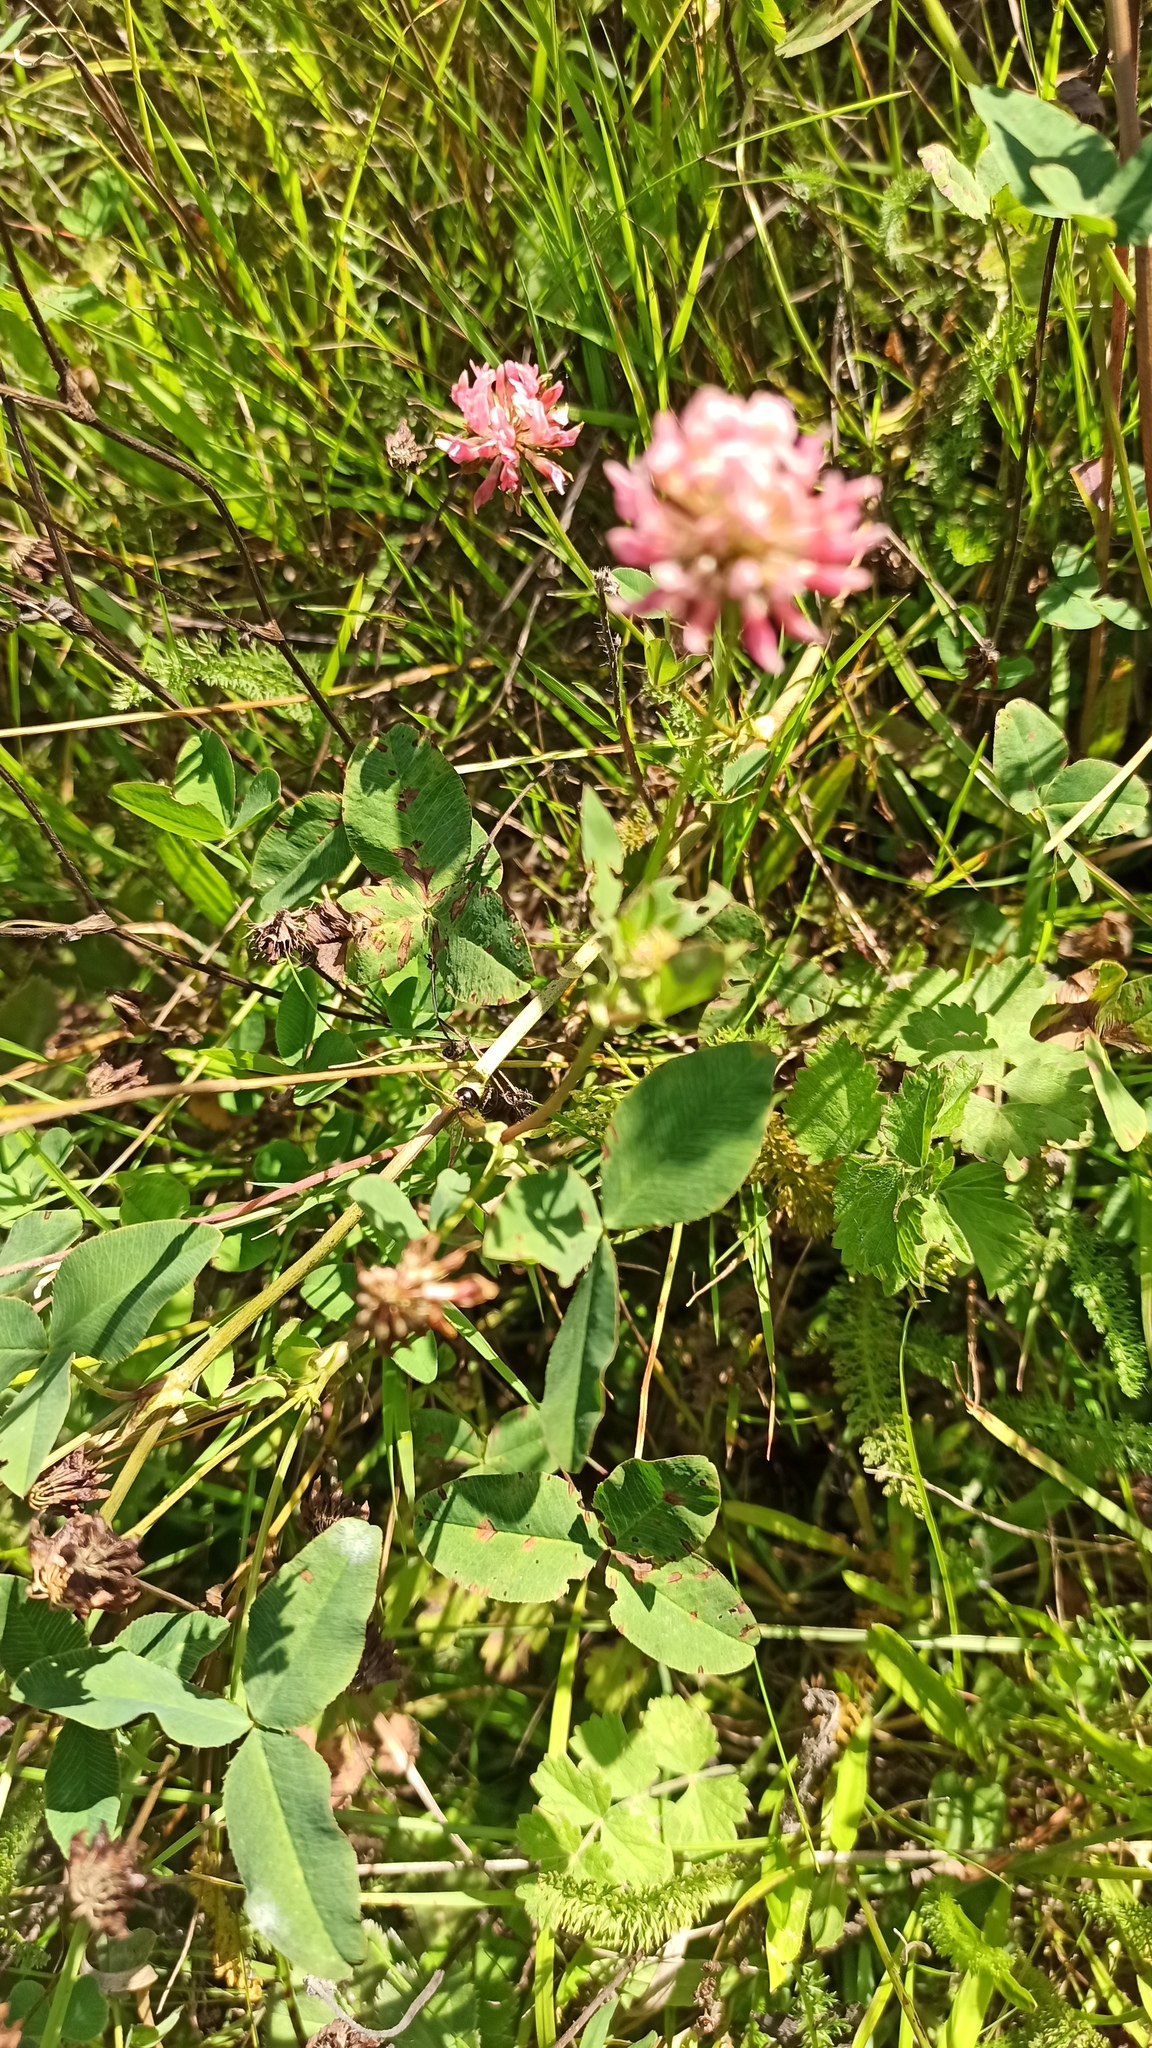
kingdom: Plantae
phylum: Tracheophyta
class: Magnoliopsida
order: Fabales
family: Fabaceae
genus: Trifolium
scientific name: Trifolium hybridum
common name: Alsike clover
